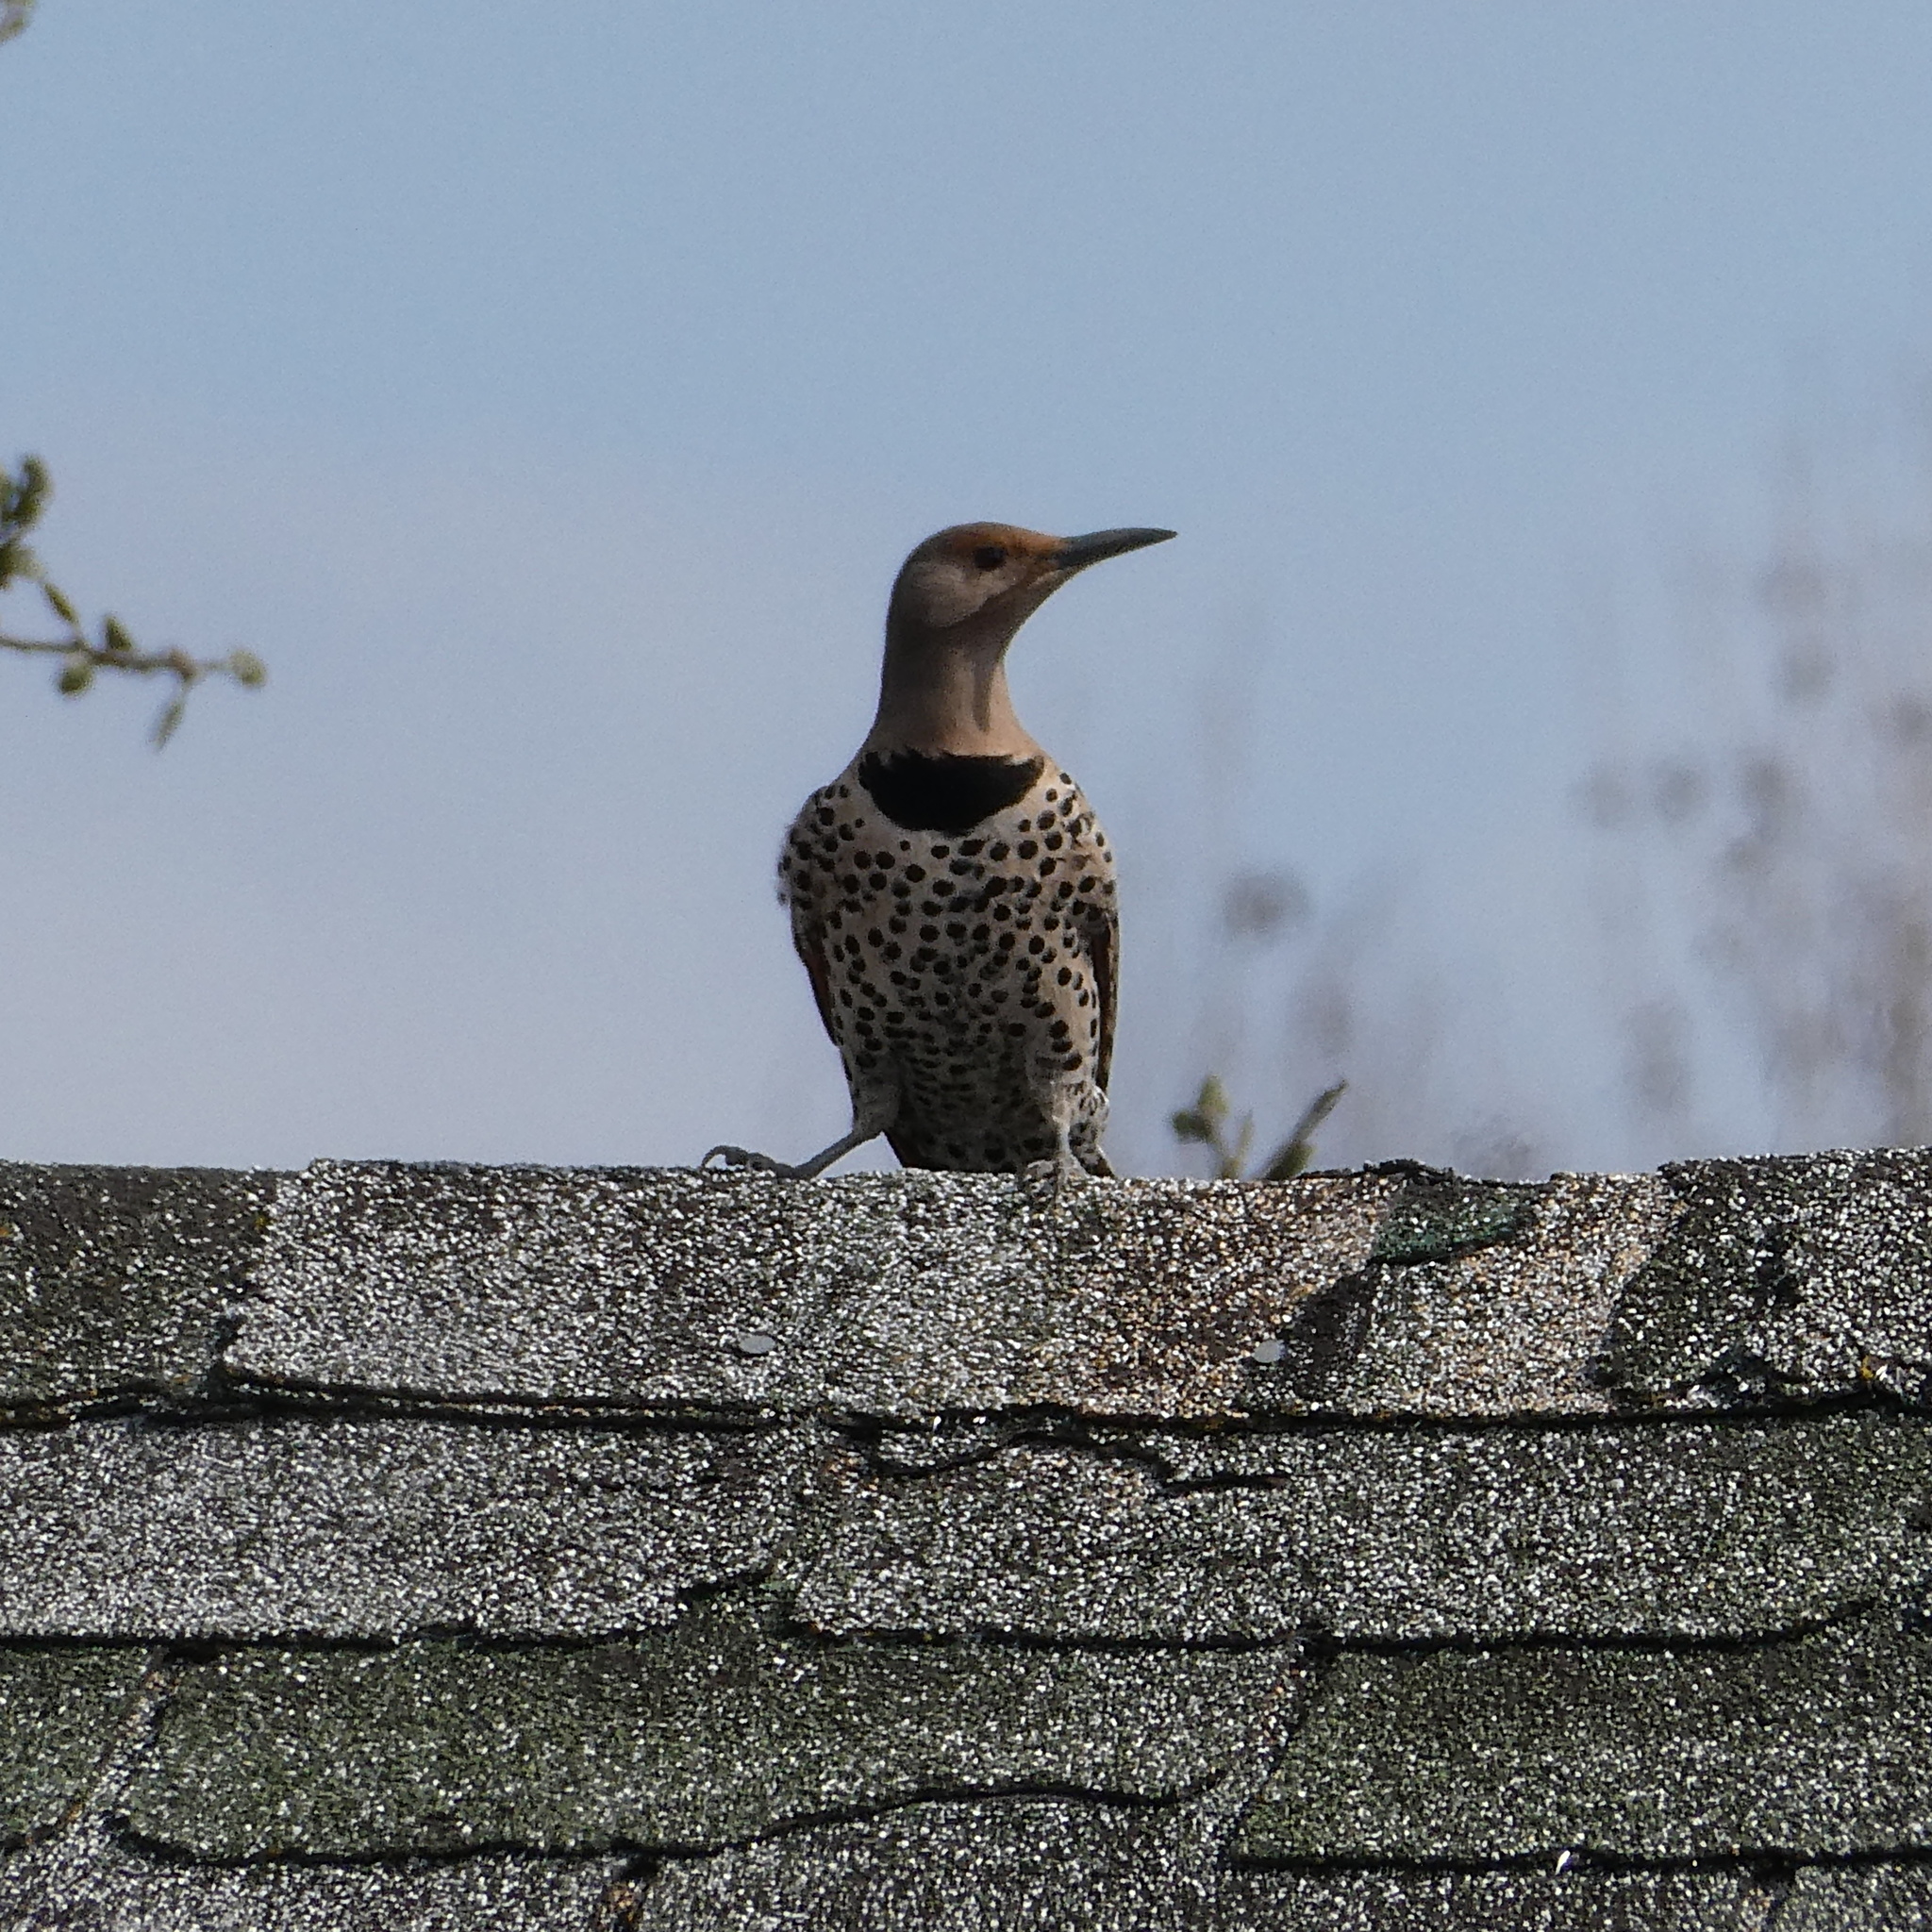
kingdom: Animalia
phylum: Chordata
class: Aves
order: Piciformes
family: Picidae
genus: Colaptes
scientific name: Colaptes auratus
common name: Northern flicker
